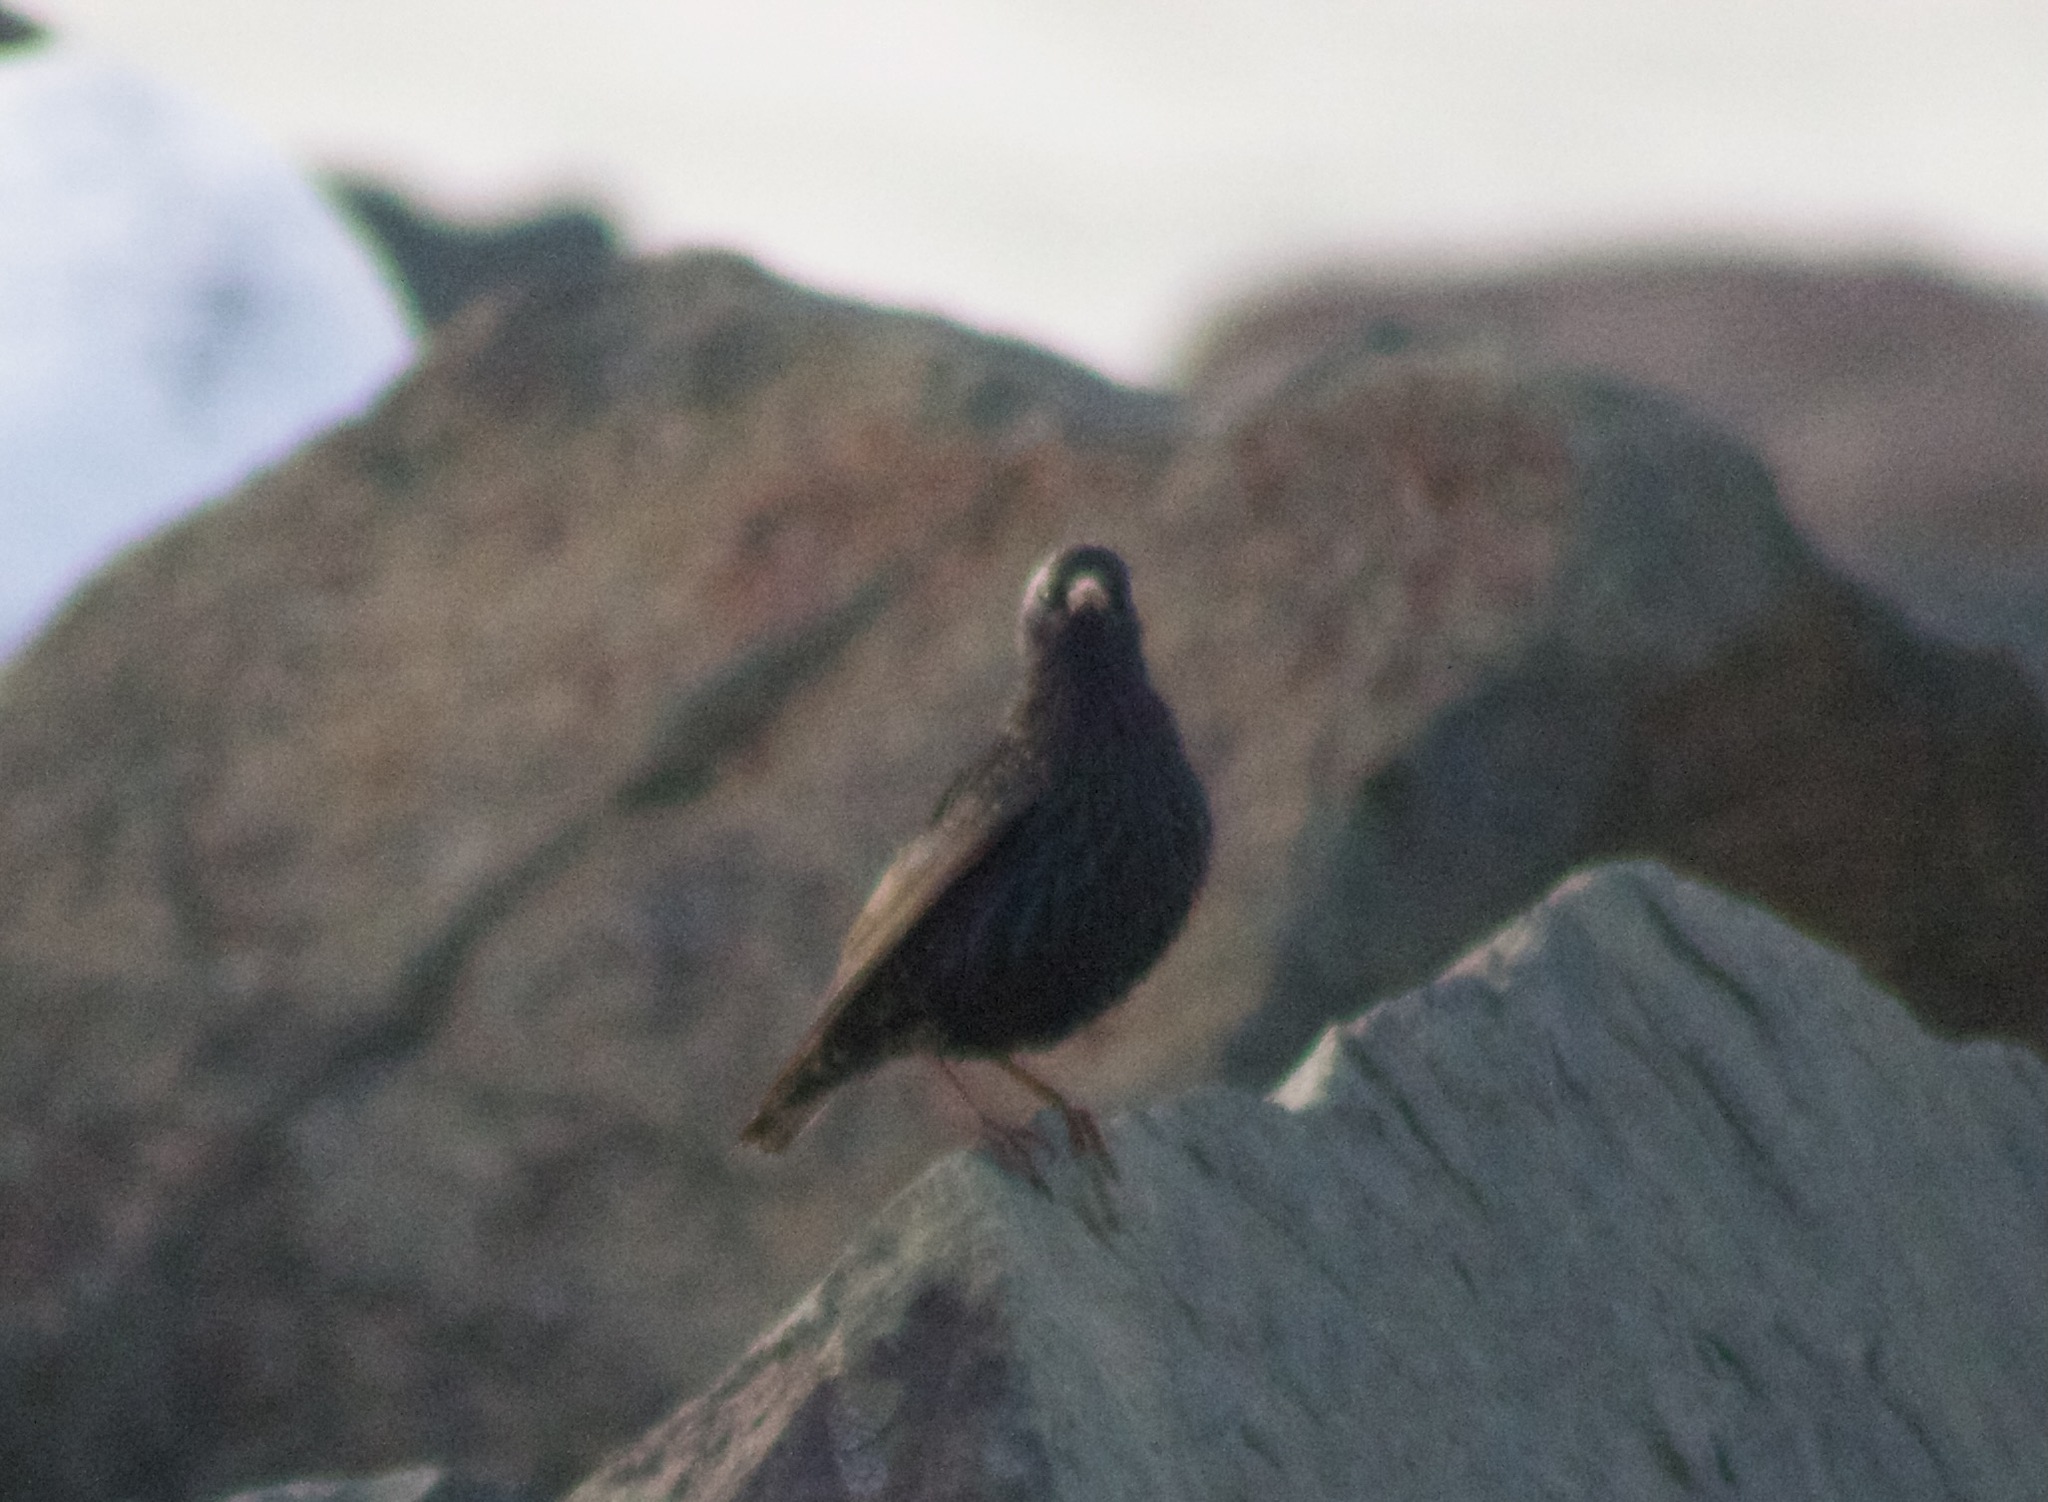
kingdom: Animalia
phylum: Chordata
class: Aves
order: Passeriformes
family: Sturnidae
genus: Sturnus
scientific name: Sturnus vulgaris
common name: Common starling
